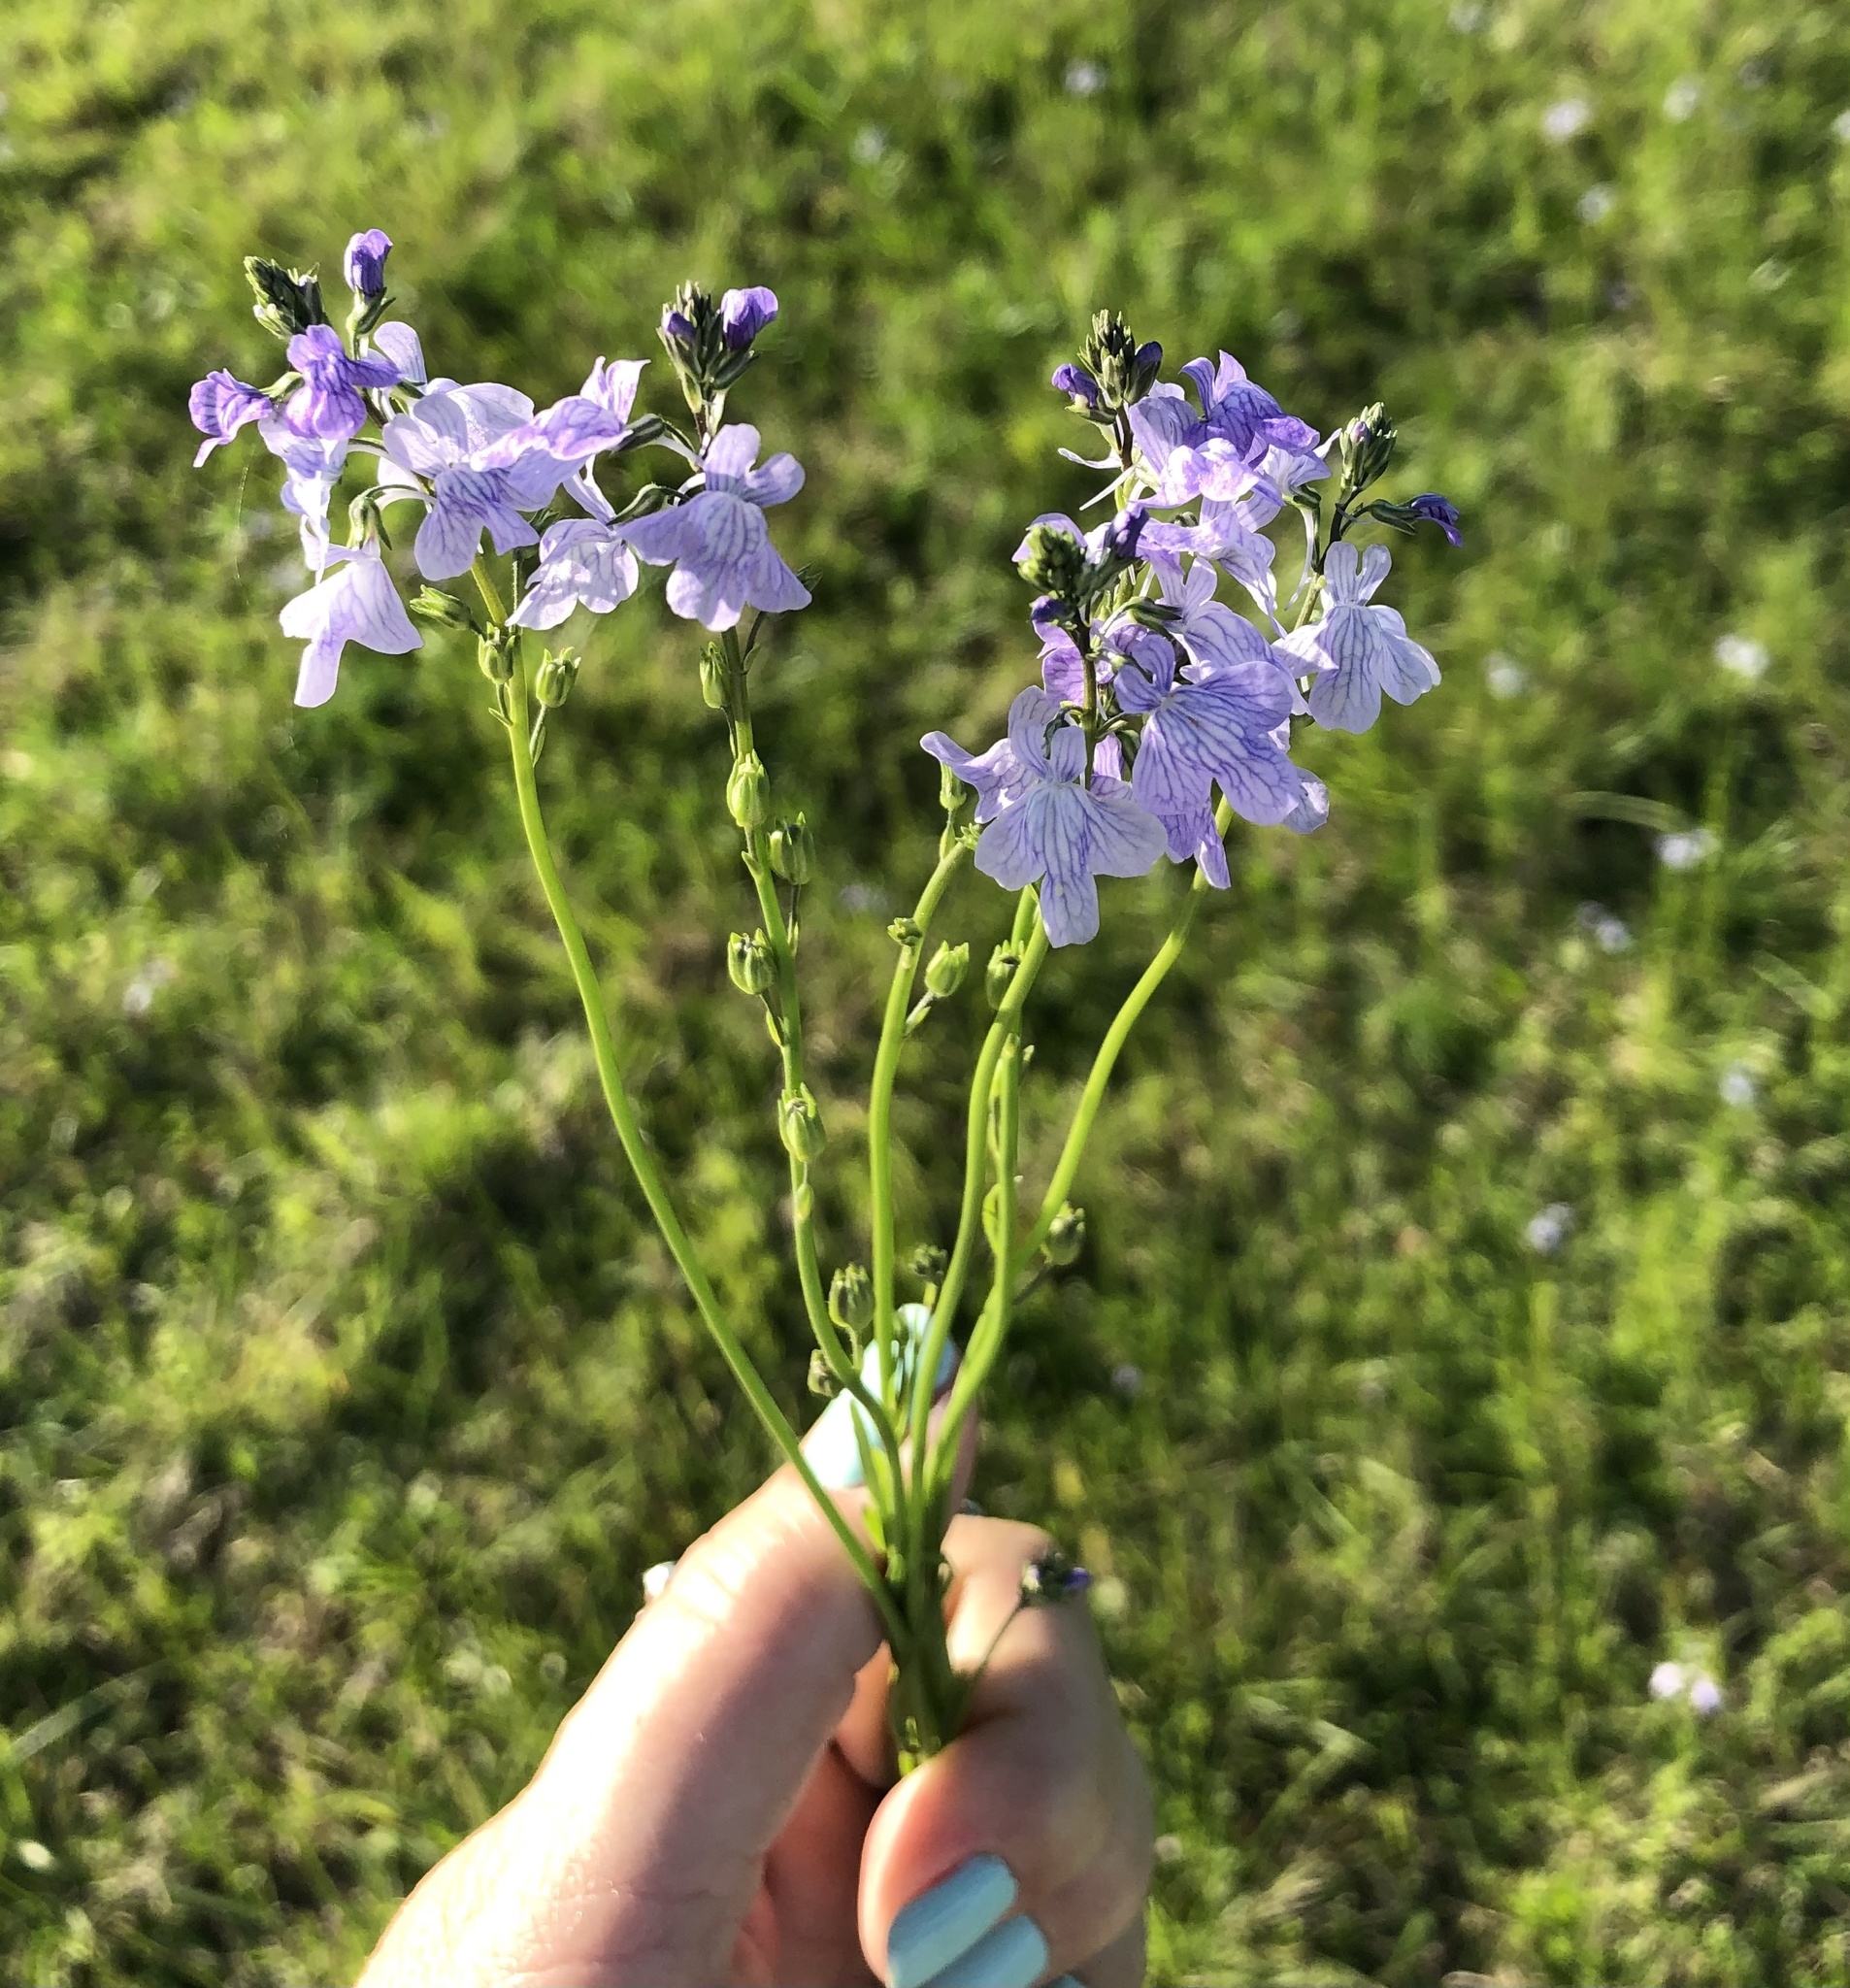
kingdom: Plantae
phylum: Tracheophyta
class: Magnoliopsida
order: Lamiales
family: Plantaginaceae
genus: Nuttallanthus
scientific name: Nuttallanthus texanus
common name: Texas toadflax
